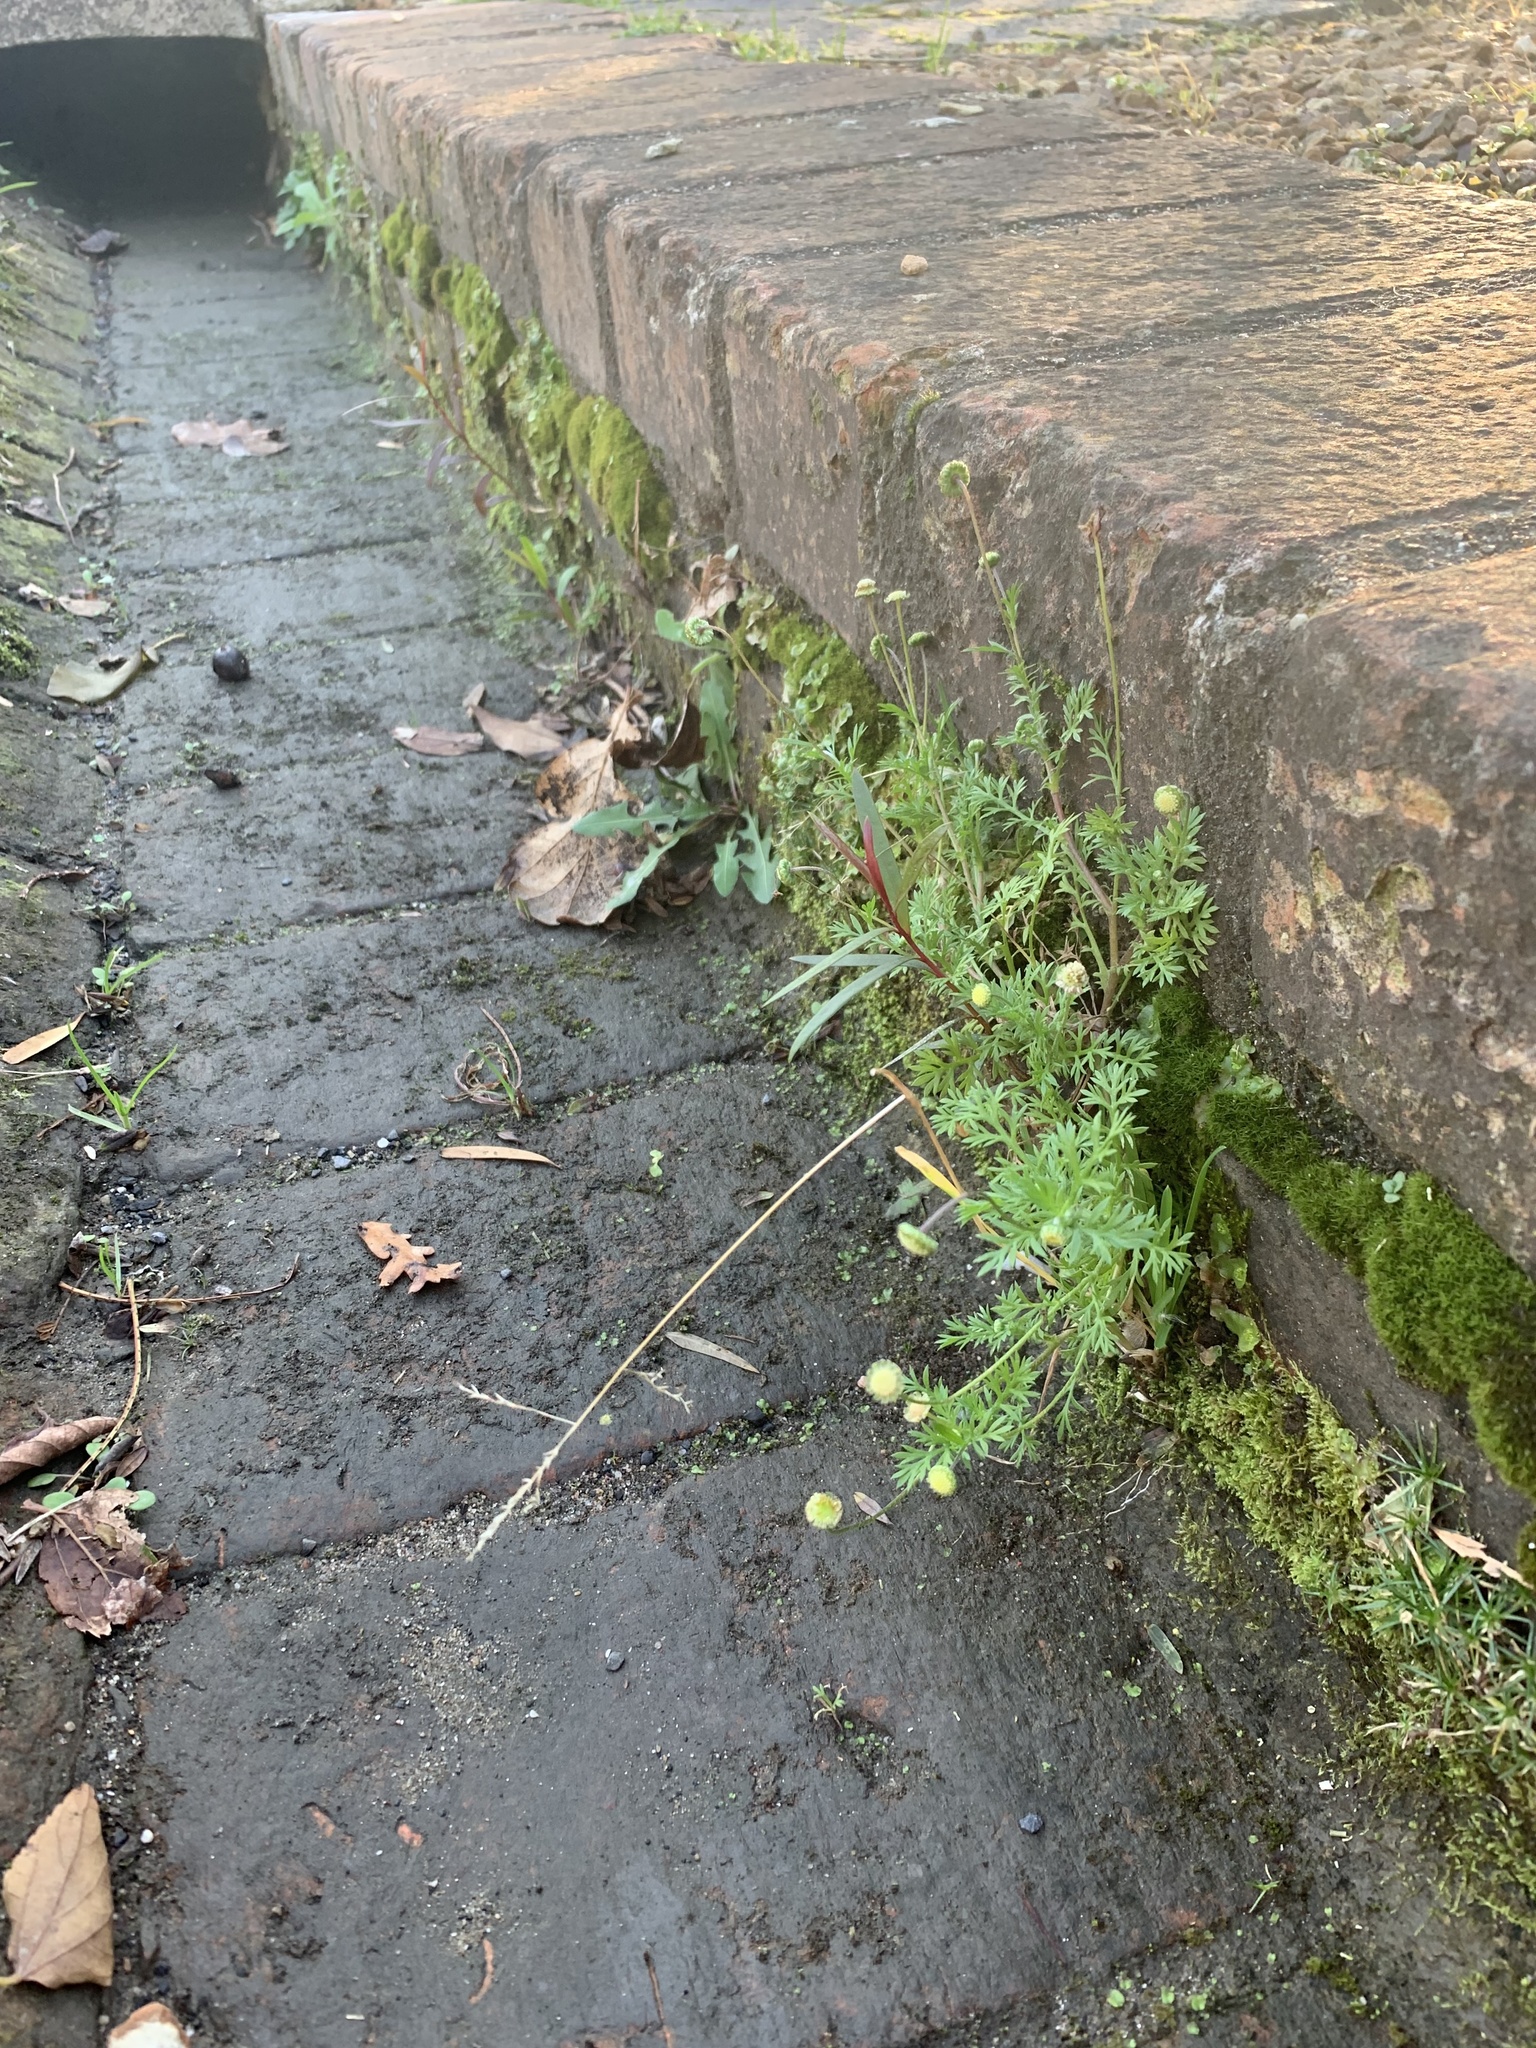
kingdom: Plantae
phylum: Tracheophyta
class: Magnoliopsida
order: Asterales
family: Asteraceae
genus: Cotula
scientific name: Cotula australis
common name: Australian waterbuttons
